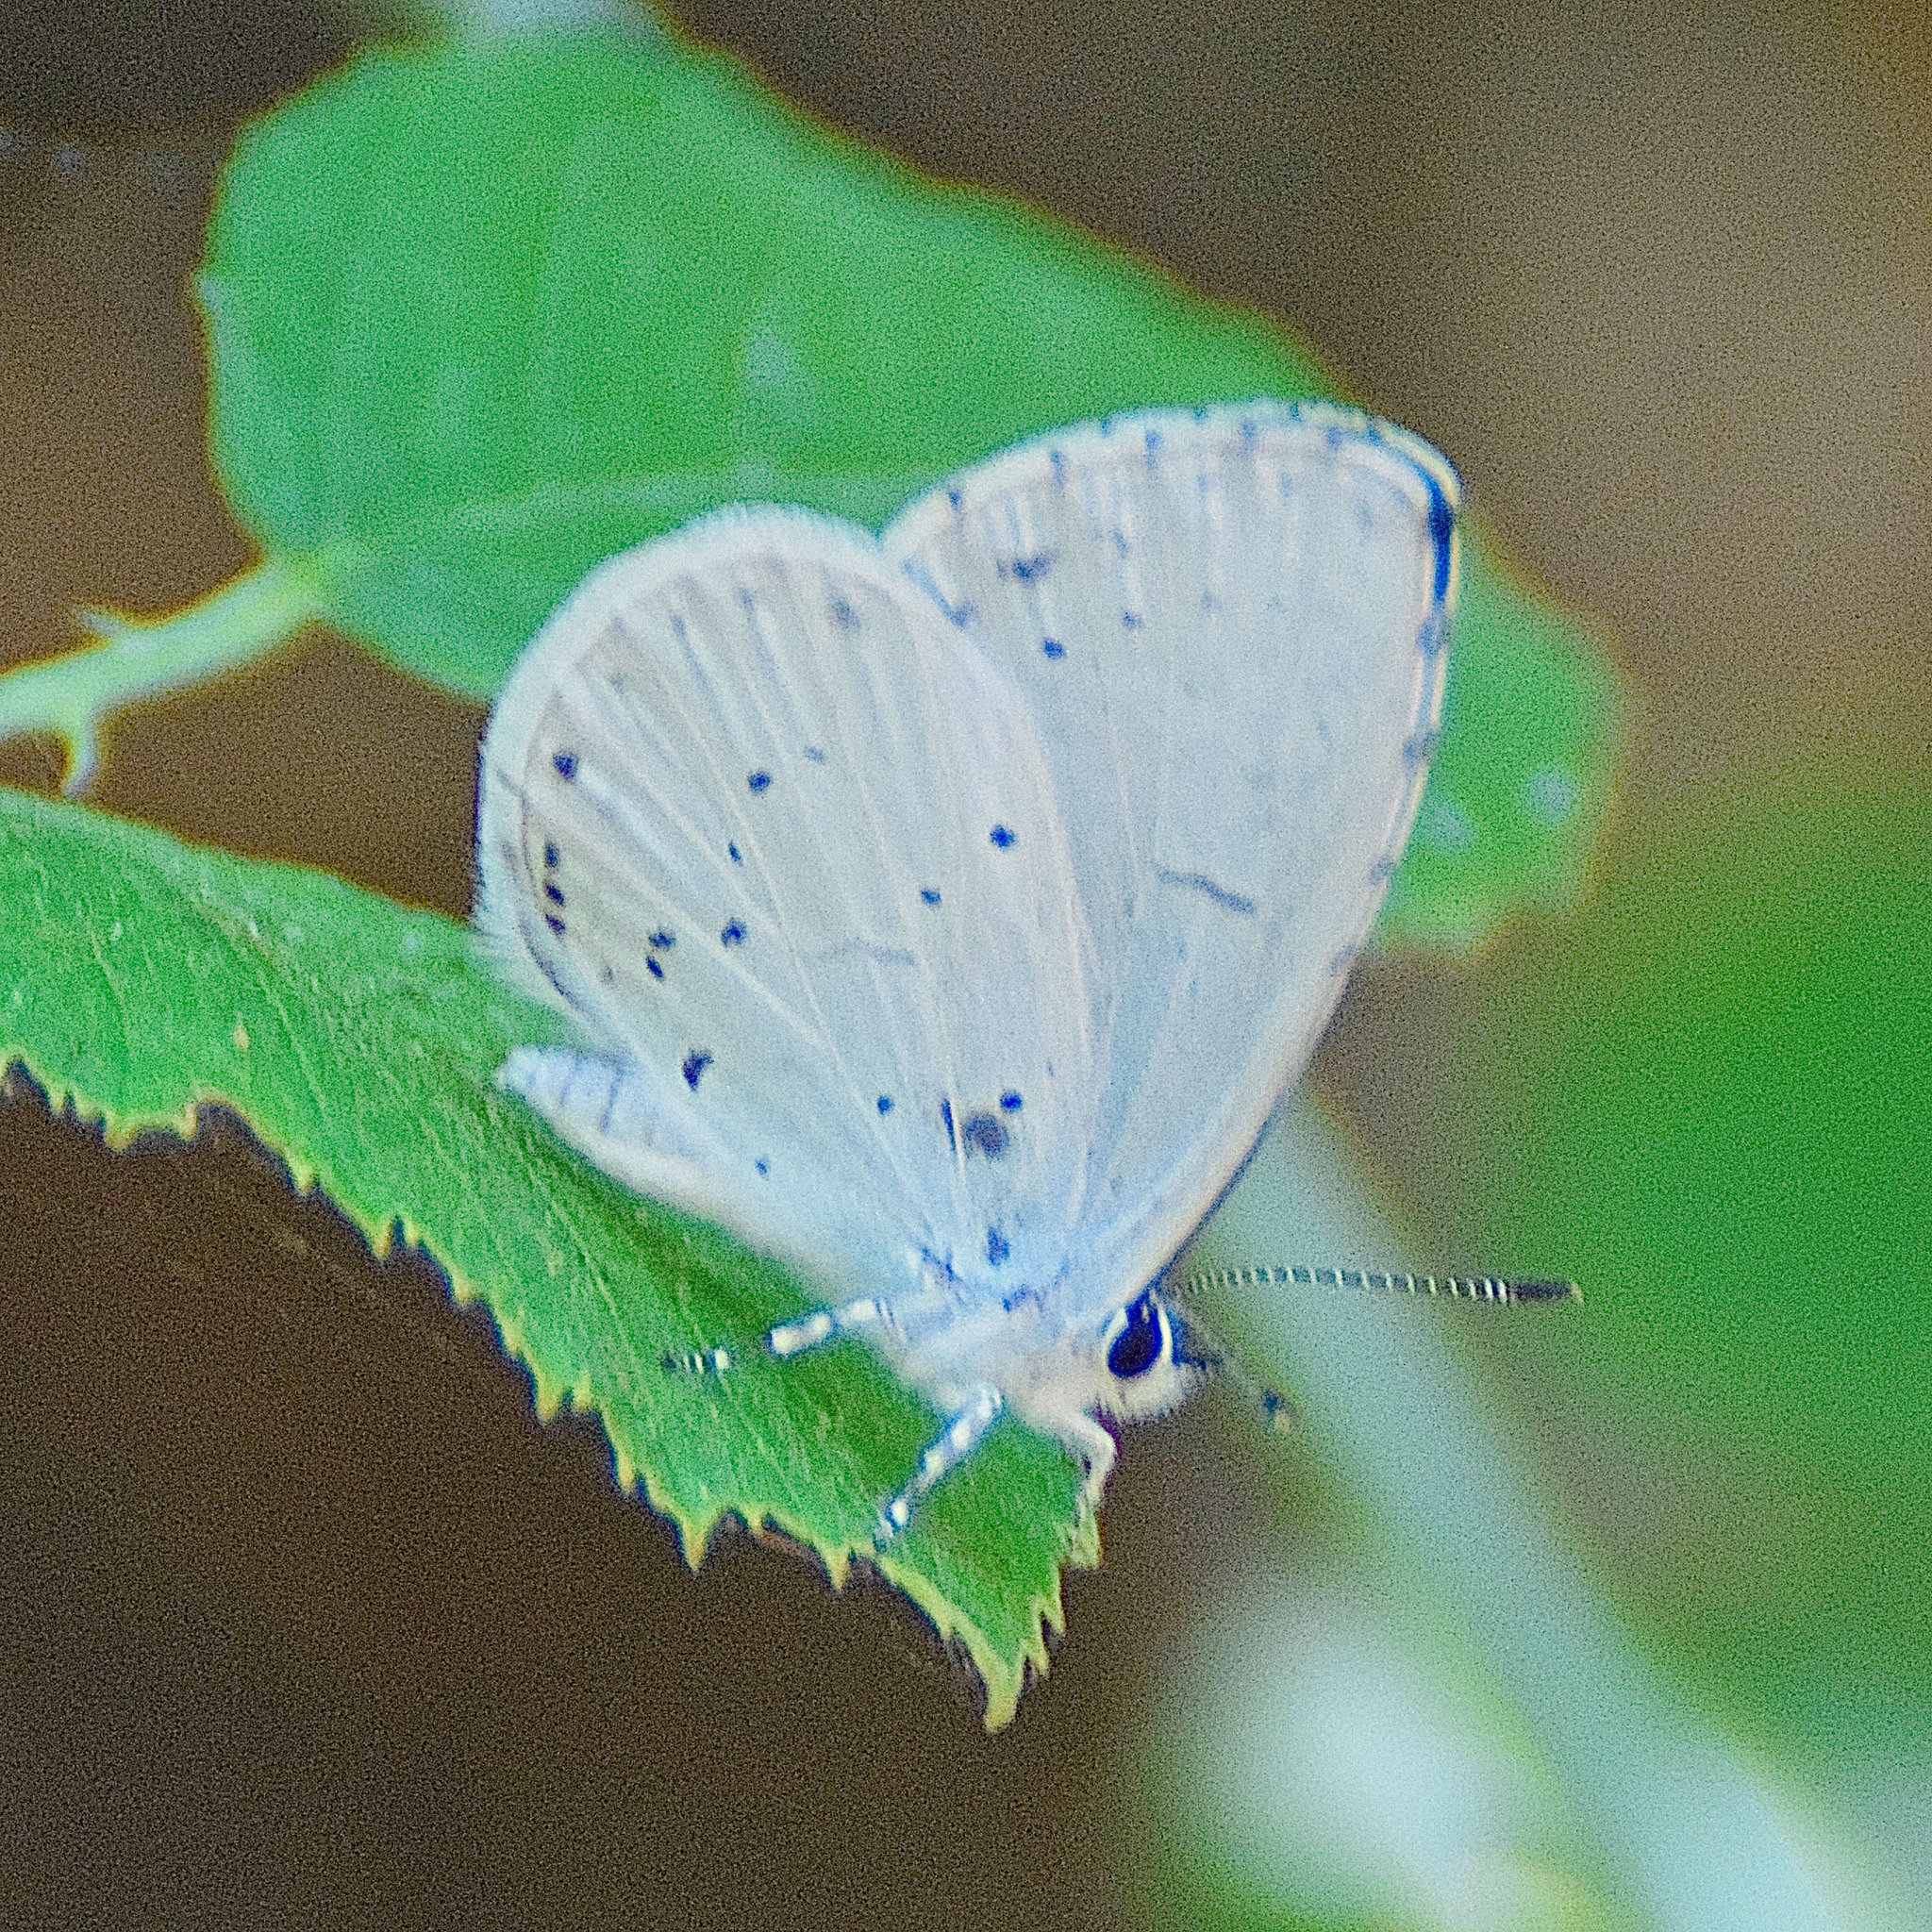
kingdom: Animalia
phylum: Arthropoda
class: Insecta
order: Lepidoptera
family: Lycaenidae
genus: Celastrina
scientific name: Celastrina argiolus
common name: Holly blue
